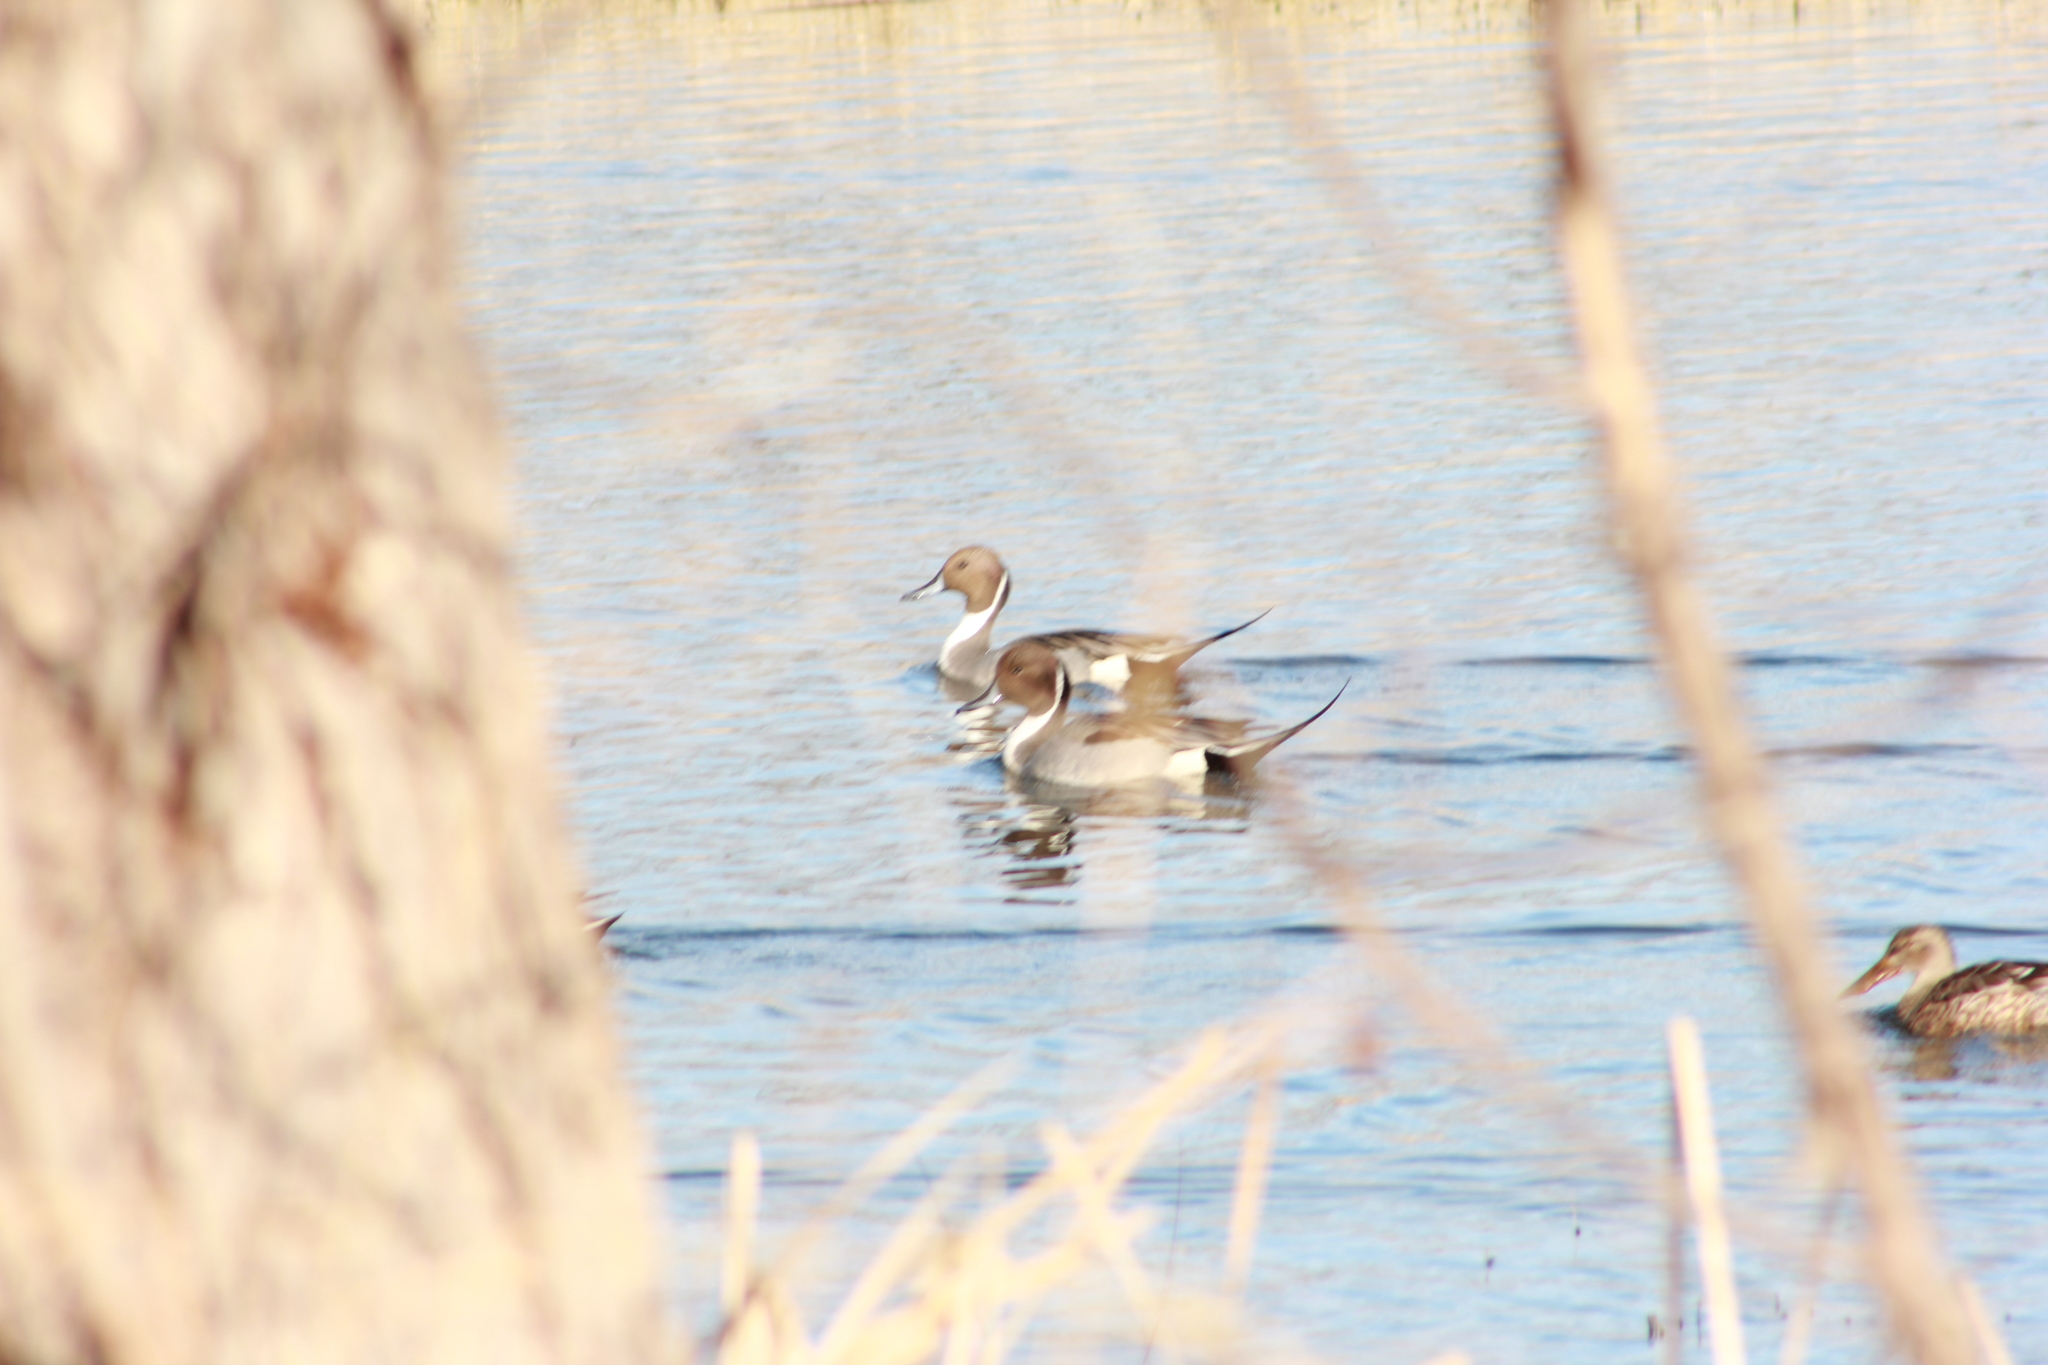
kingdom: Animalia
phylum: Chordata
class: Aves
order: Anseriformes
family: Anatidae
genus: Anas
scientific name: Anas acuta
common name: Northern pintail
